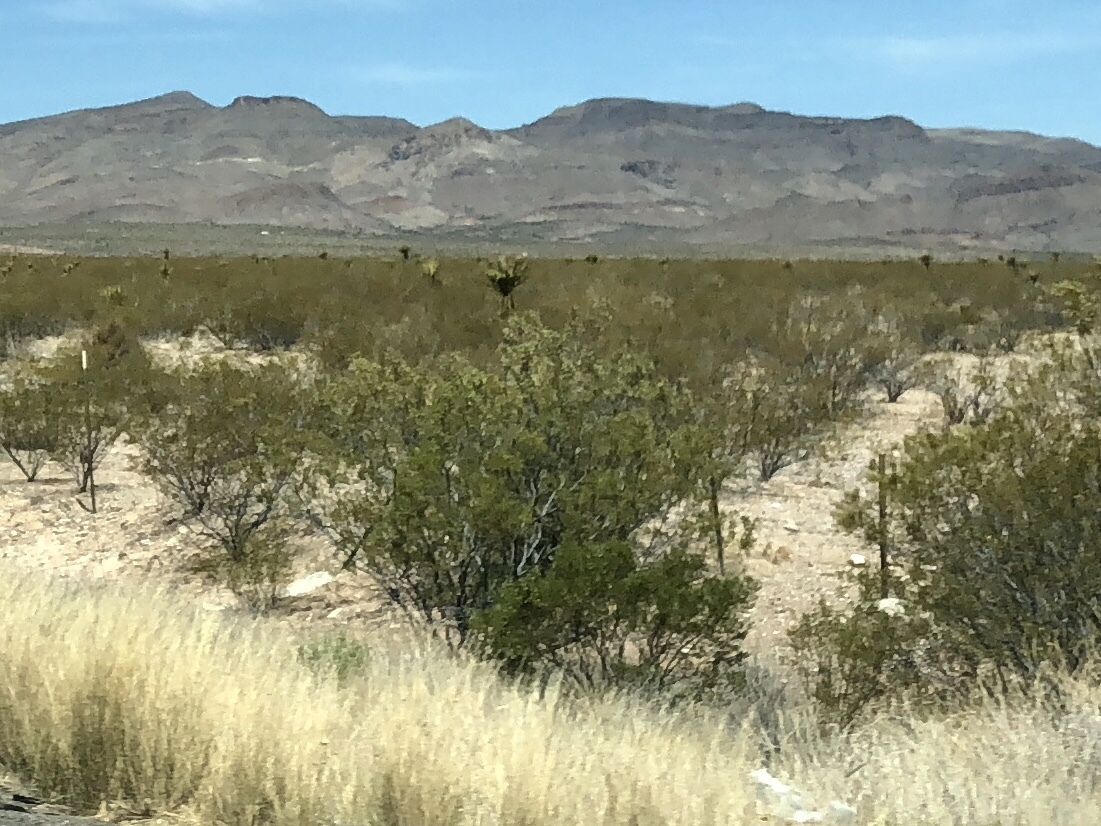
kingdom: Plantae
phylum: Tracheophyta
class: Magnoliopsida
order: Zygophyllales
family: Zygophyllaceae
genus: Larrea
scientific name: Larrea tridentata
